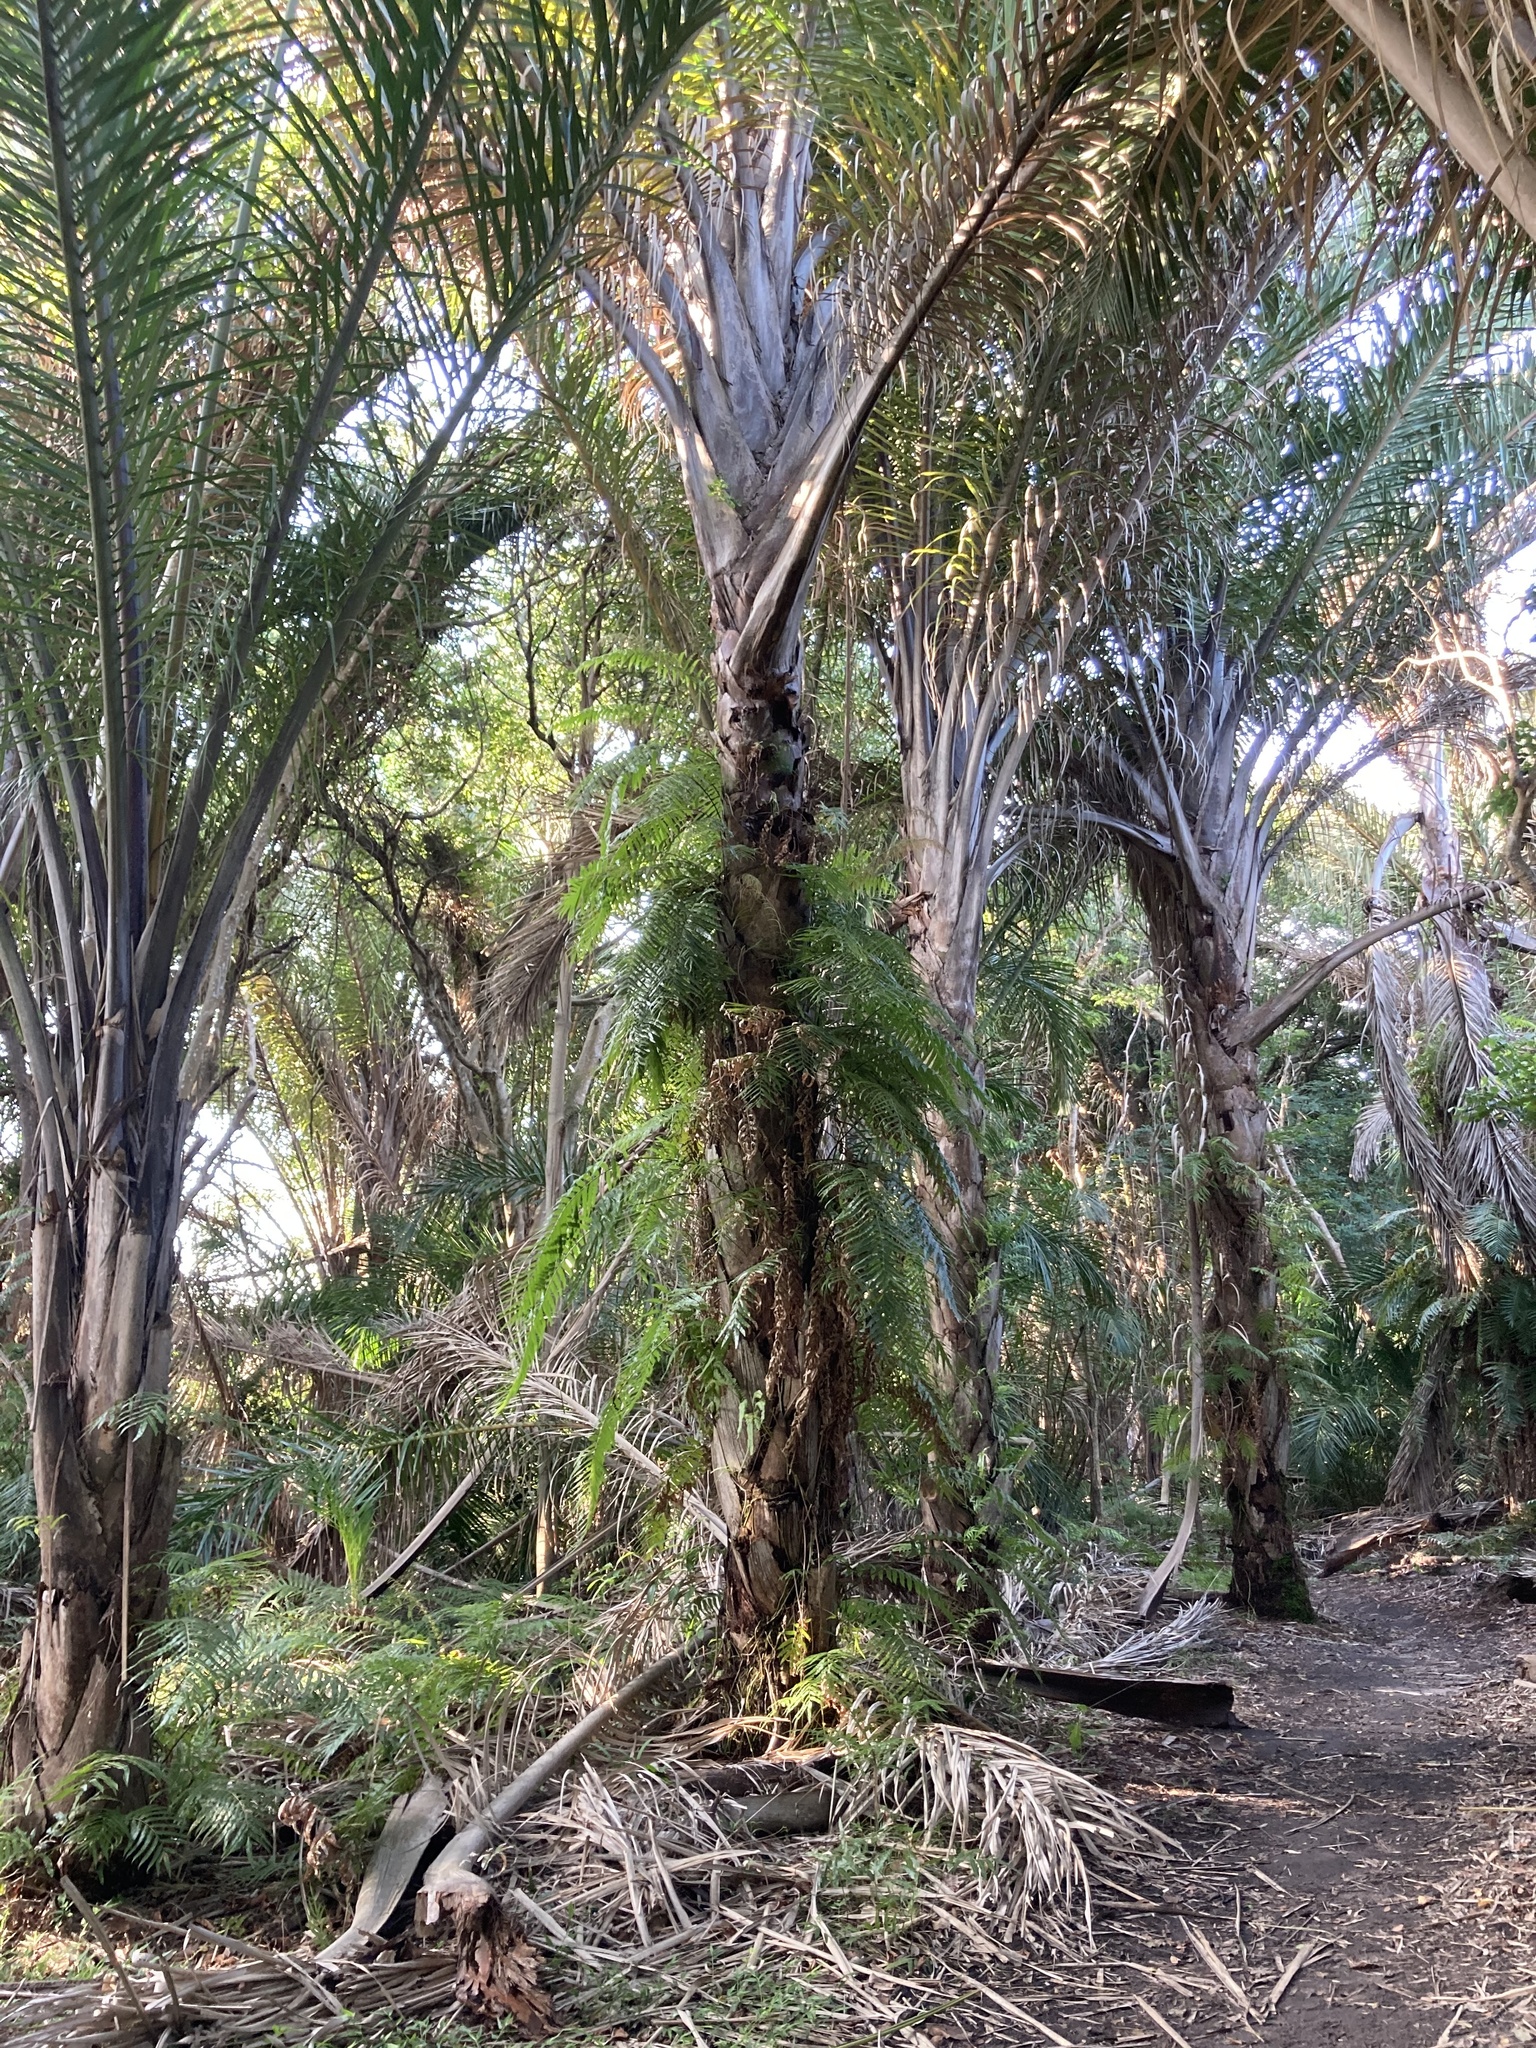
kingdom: Plantae
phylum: Tracheophyta
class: Liliopsida
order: Arecales
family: Arecaceae
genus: Raphia
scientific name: Raphia australis
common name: Giant palm
